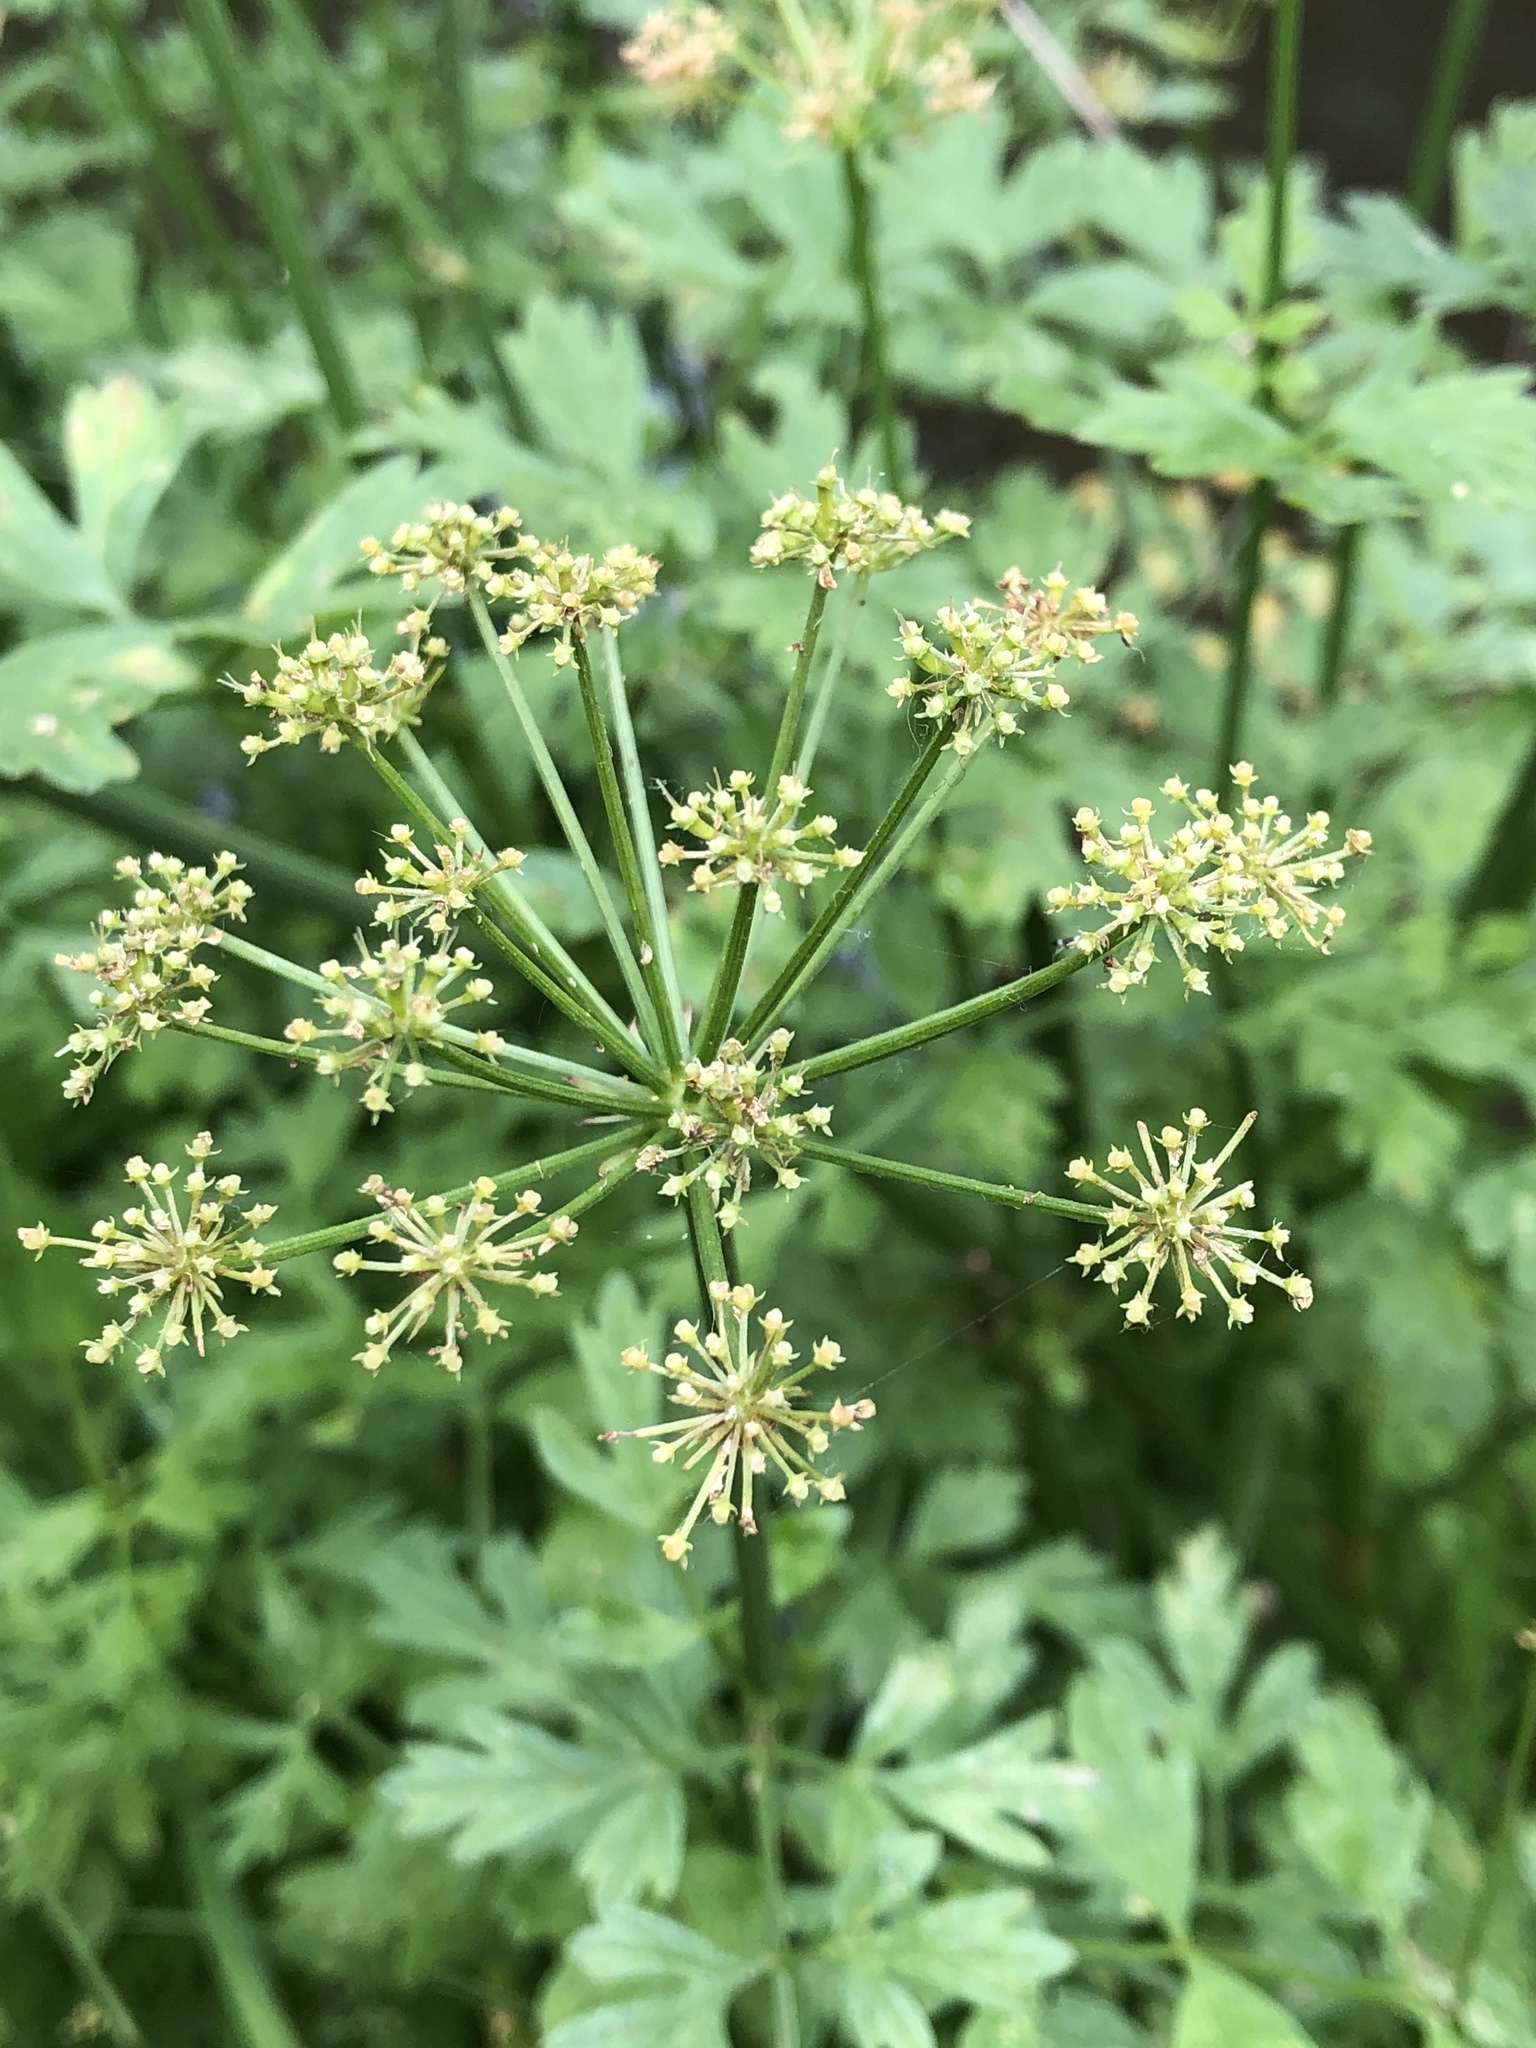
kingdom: Plantae
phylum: Tracheophyta
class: Magnoliopsida
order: Apiales
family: Apiaceae
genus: Oenanthe
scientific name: Oenanthe crocata
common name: Hemlock water-dropwort
